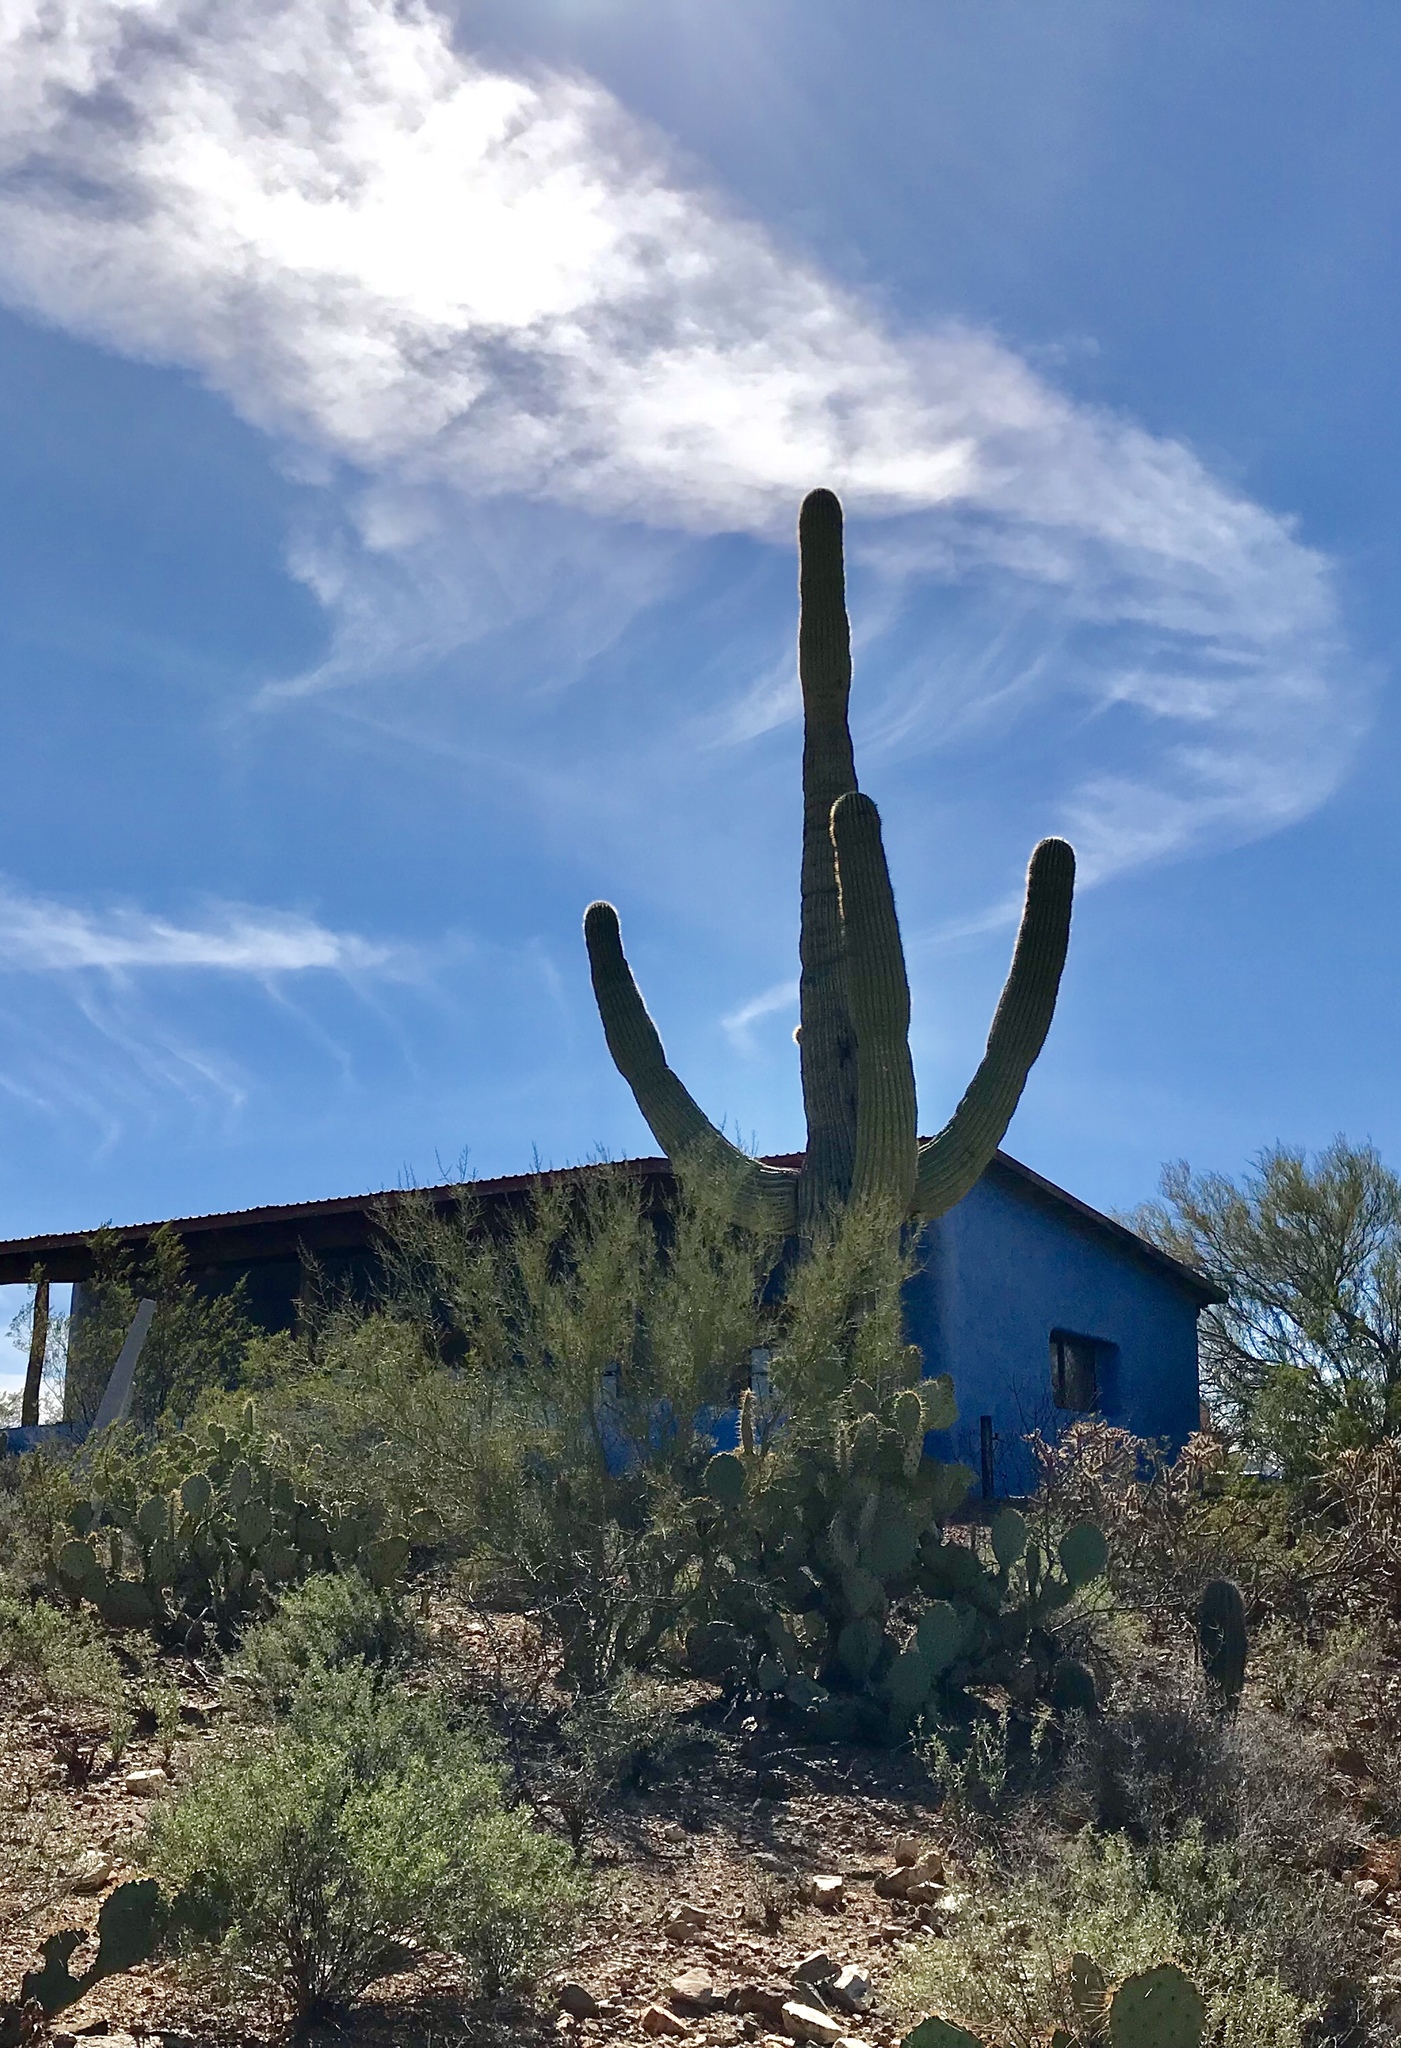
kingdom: Plantae
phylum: Tracheophyta
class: Magnoliopsida
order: Caryophyllales
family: Cactaceae
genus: Carnegiea
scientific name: Carnegiea gigantea
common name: Saguaro
